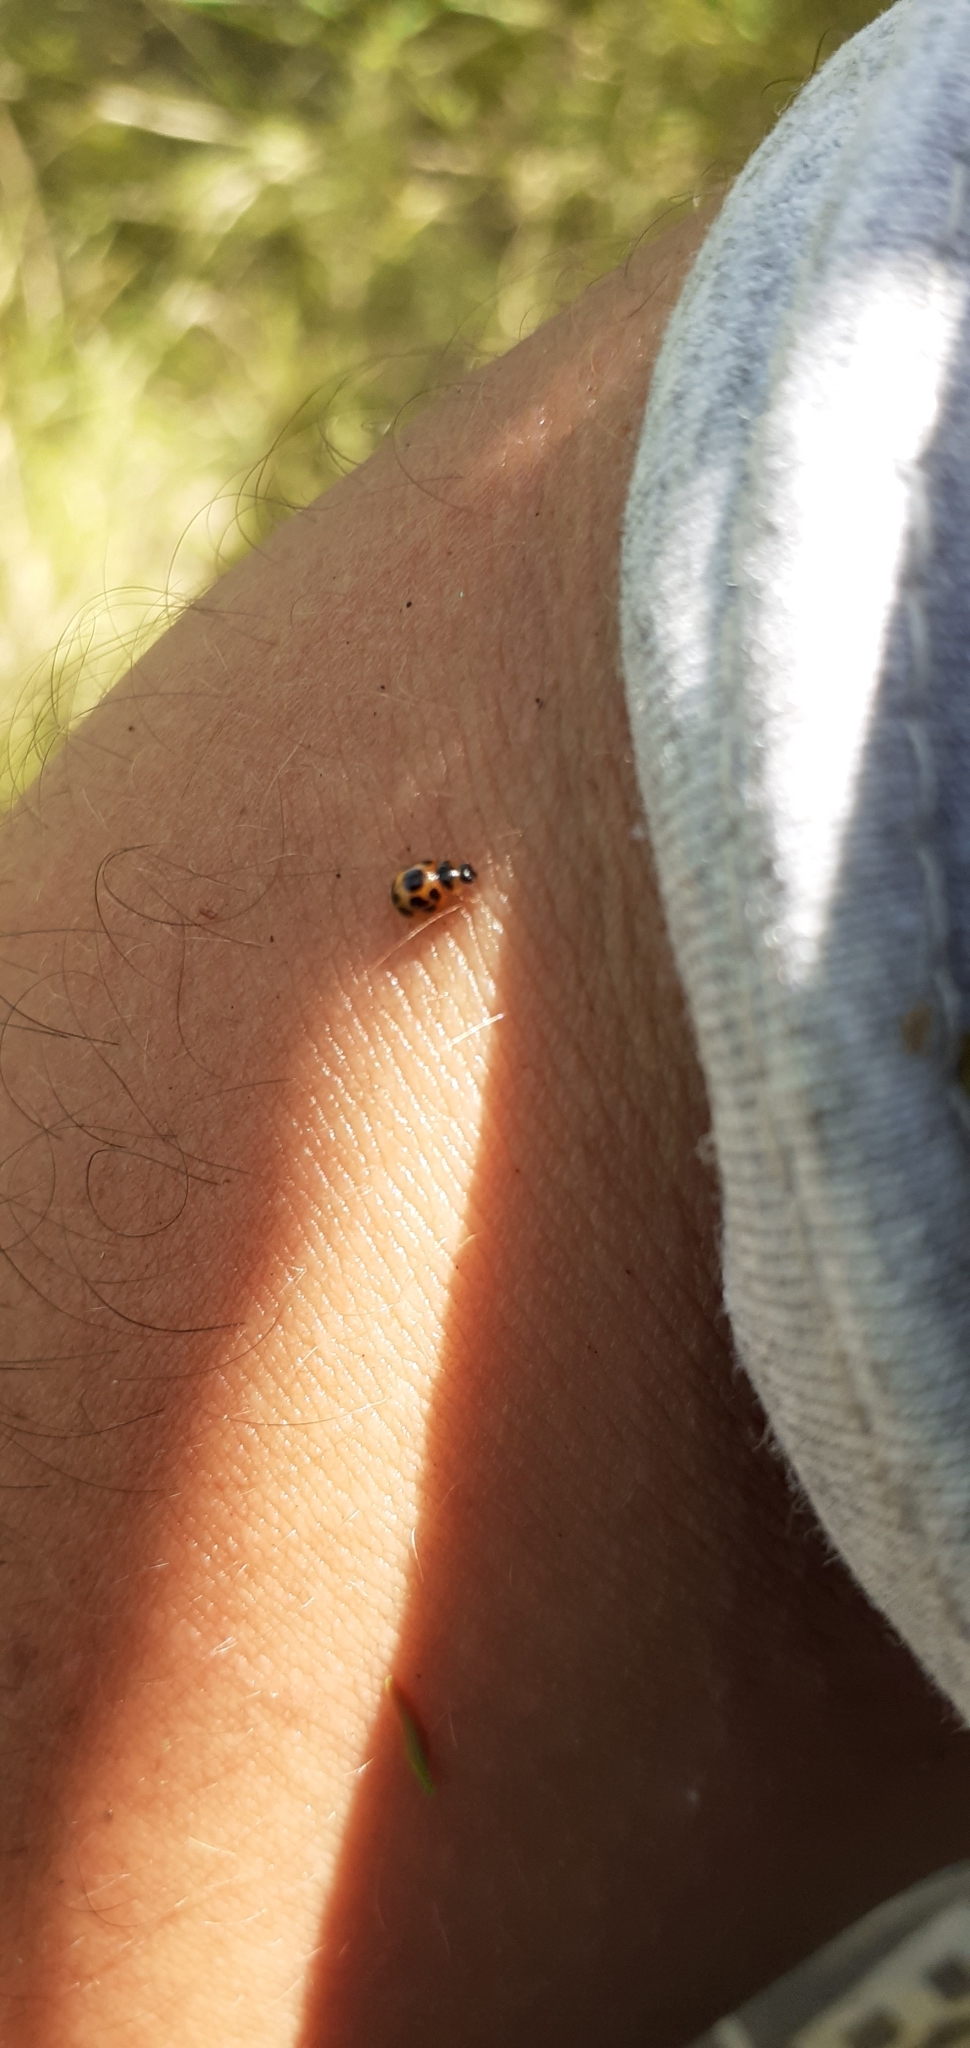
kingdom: Animalia
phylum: Arthropoda
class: Insecta
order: Coleoptera
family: Coccinellidae
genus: Zagreus
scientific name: Zagreus
